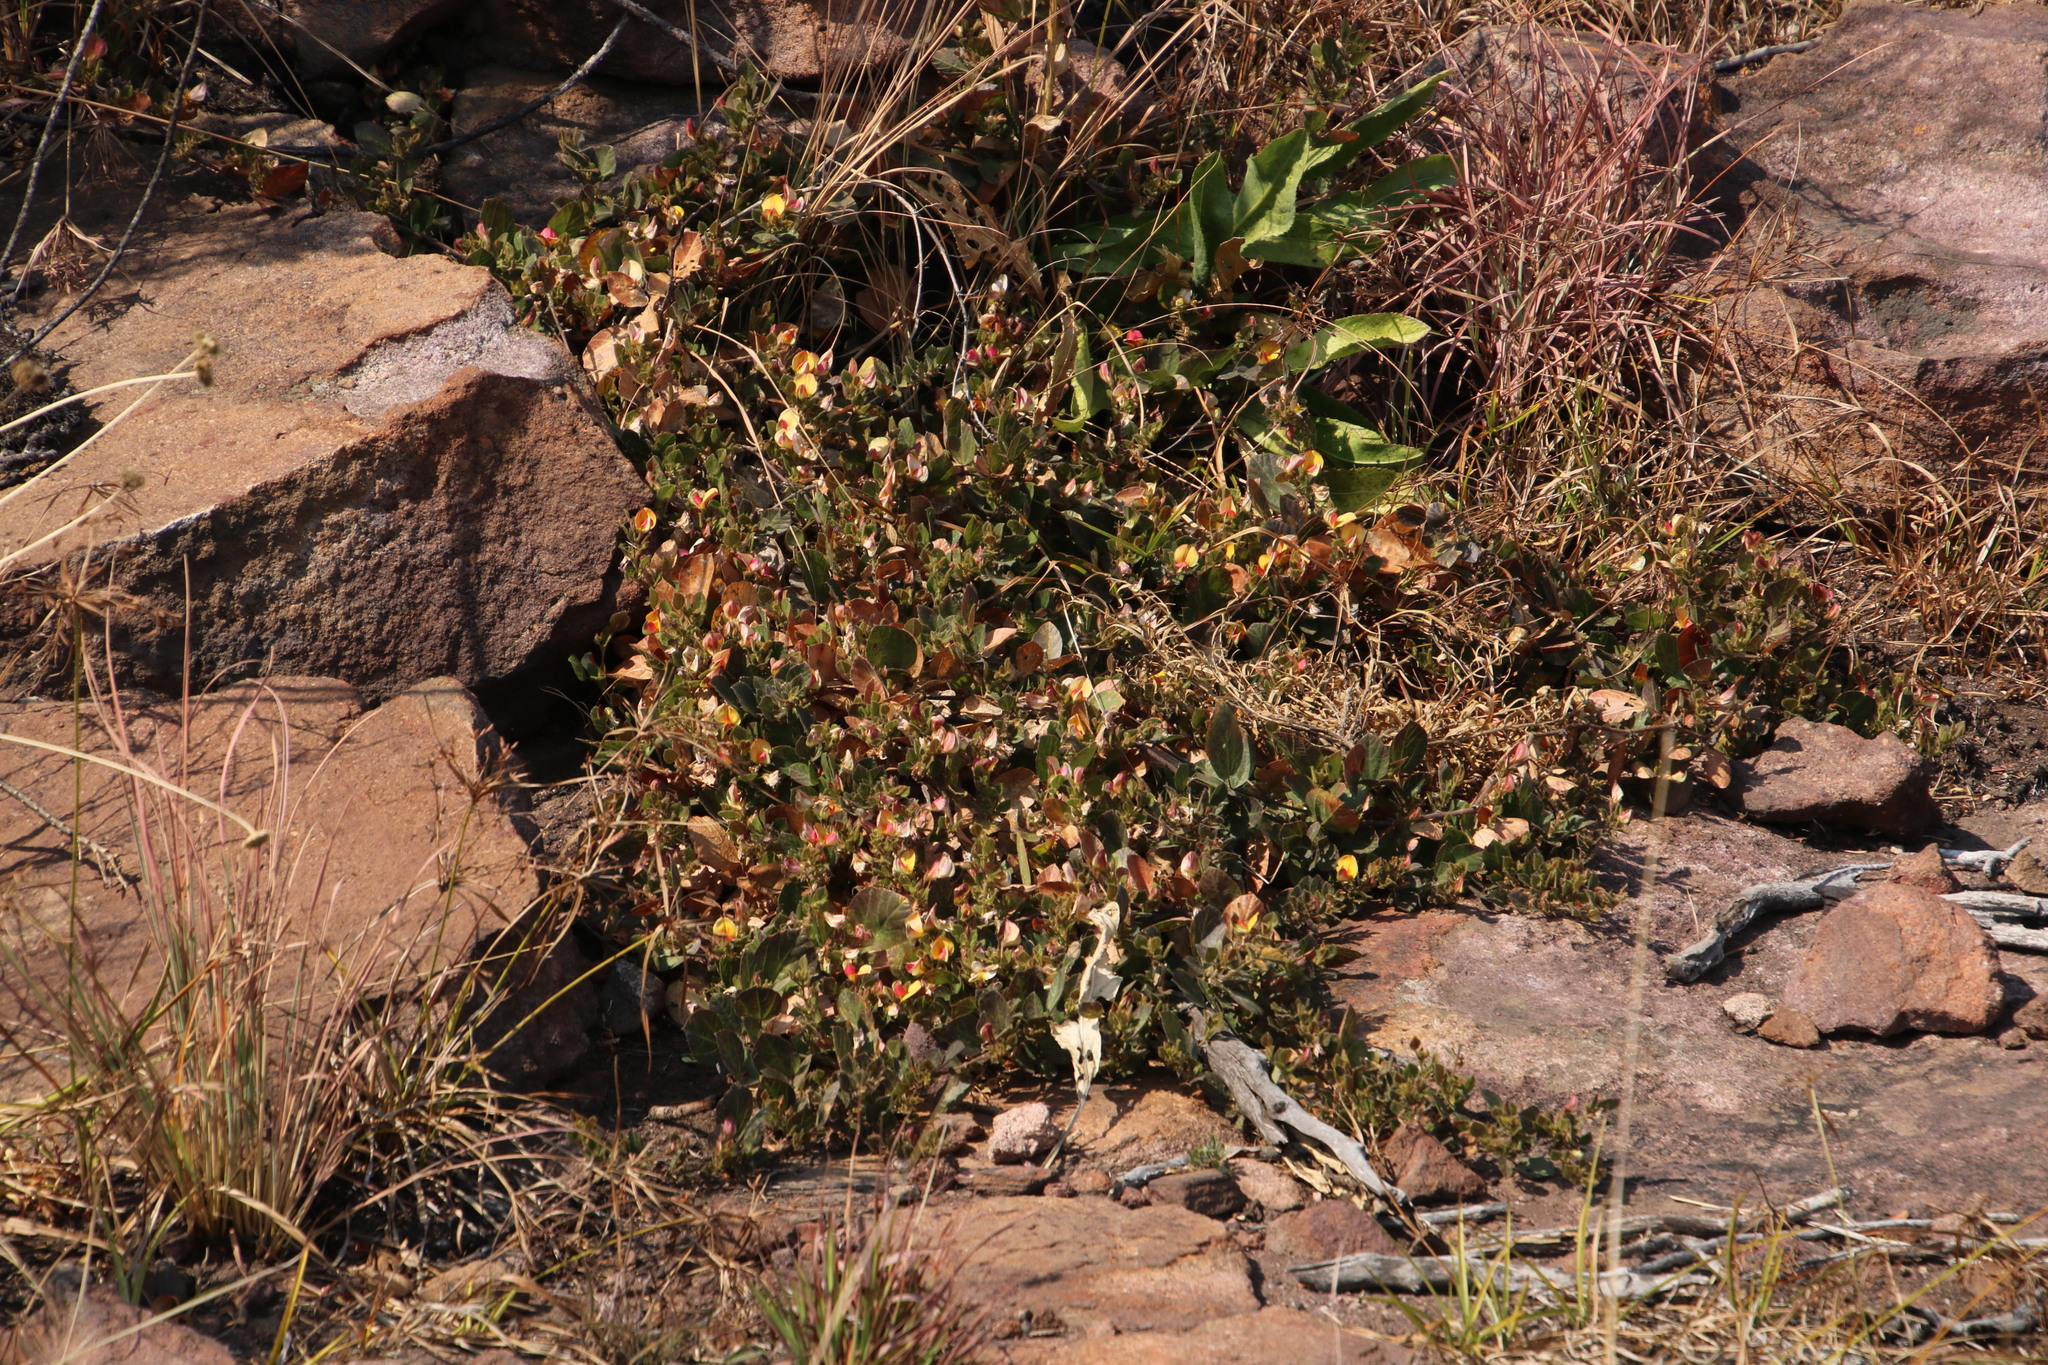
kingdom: Plantae
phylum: Tracheophyta
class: Magnoliopsida
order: Fabales
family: Fabaceae
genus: Rhynchosia
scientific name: Rhynchosia monophylla
